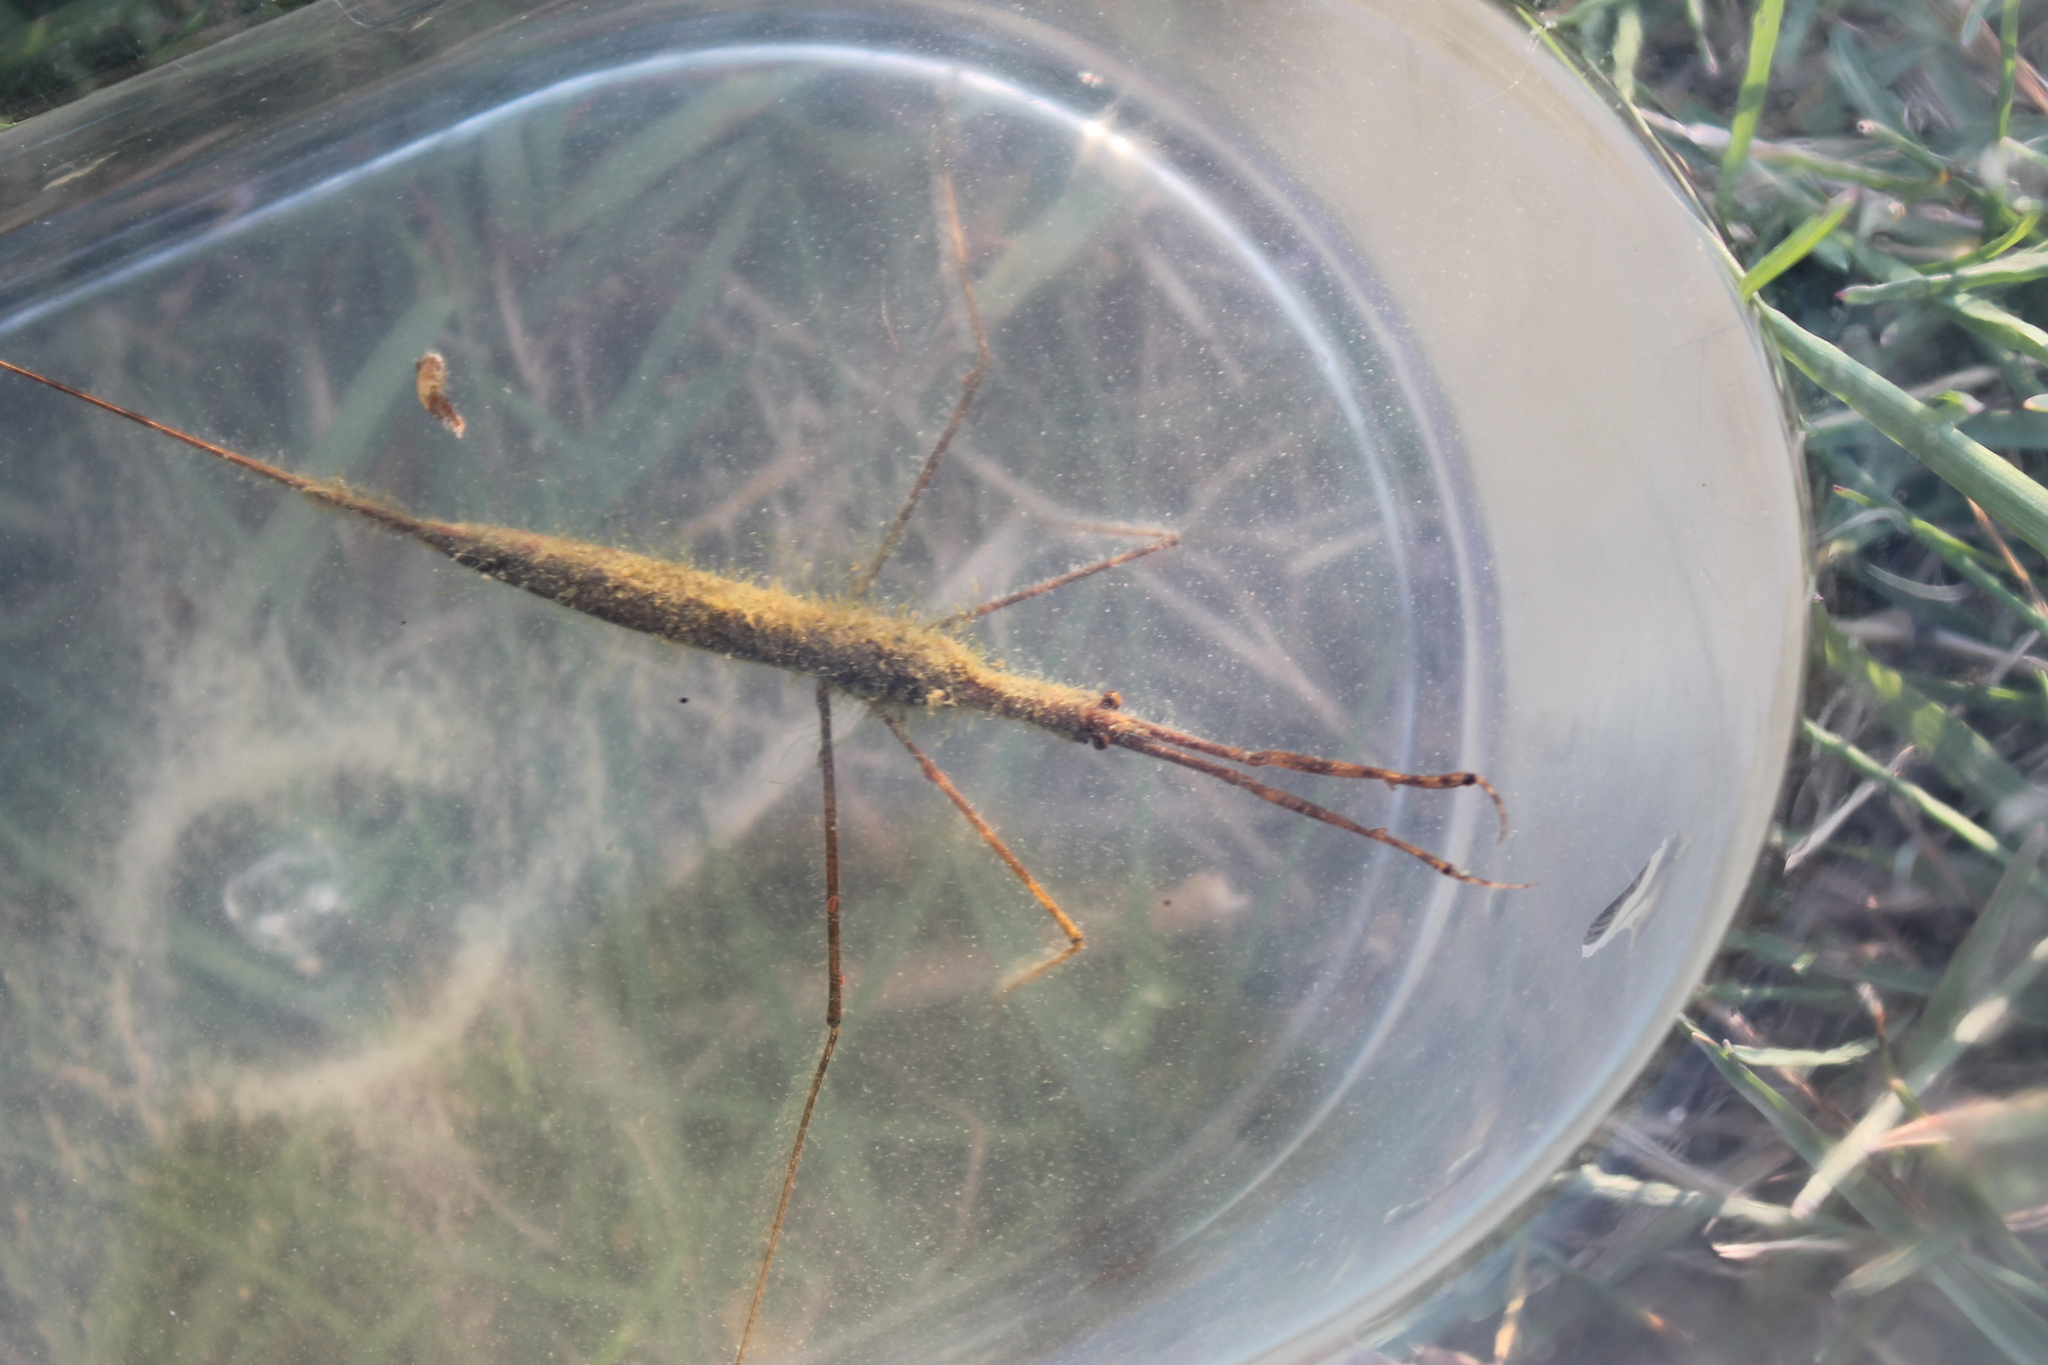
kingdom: Animalia
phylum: Arthropoda
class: Insecta
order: Hemiptera
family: Nepidae
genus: Ranatra
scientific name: Ranatra
